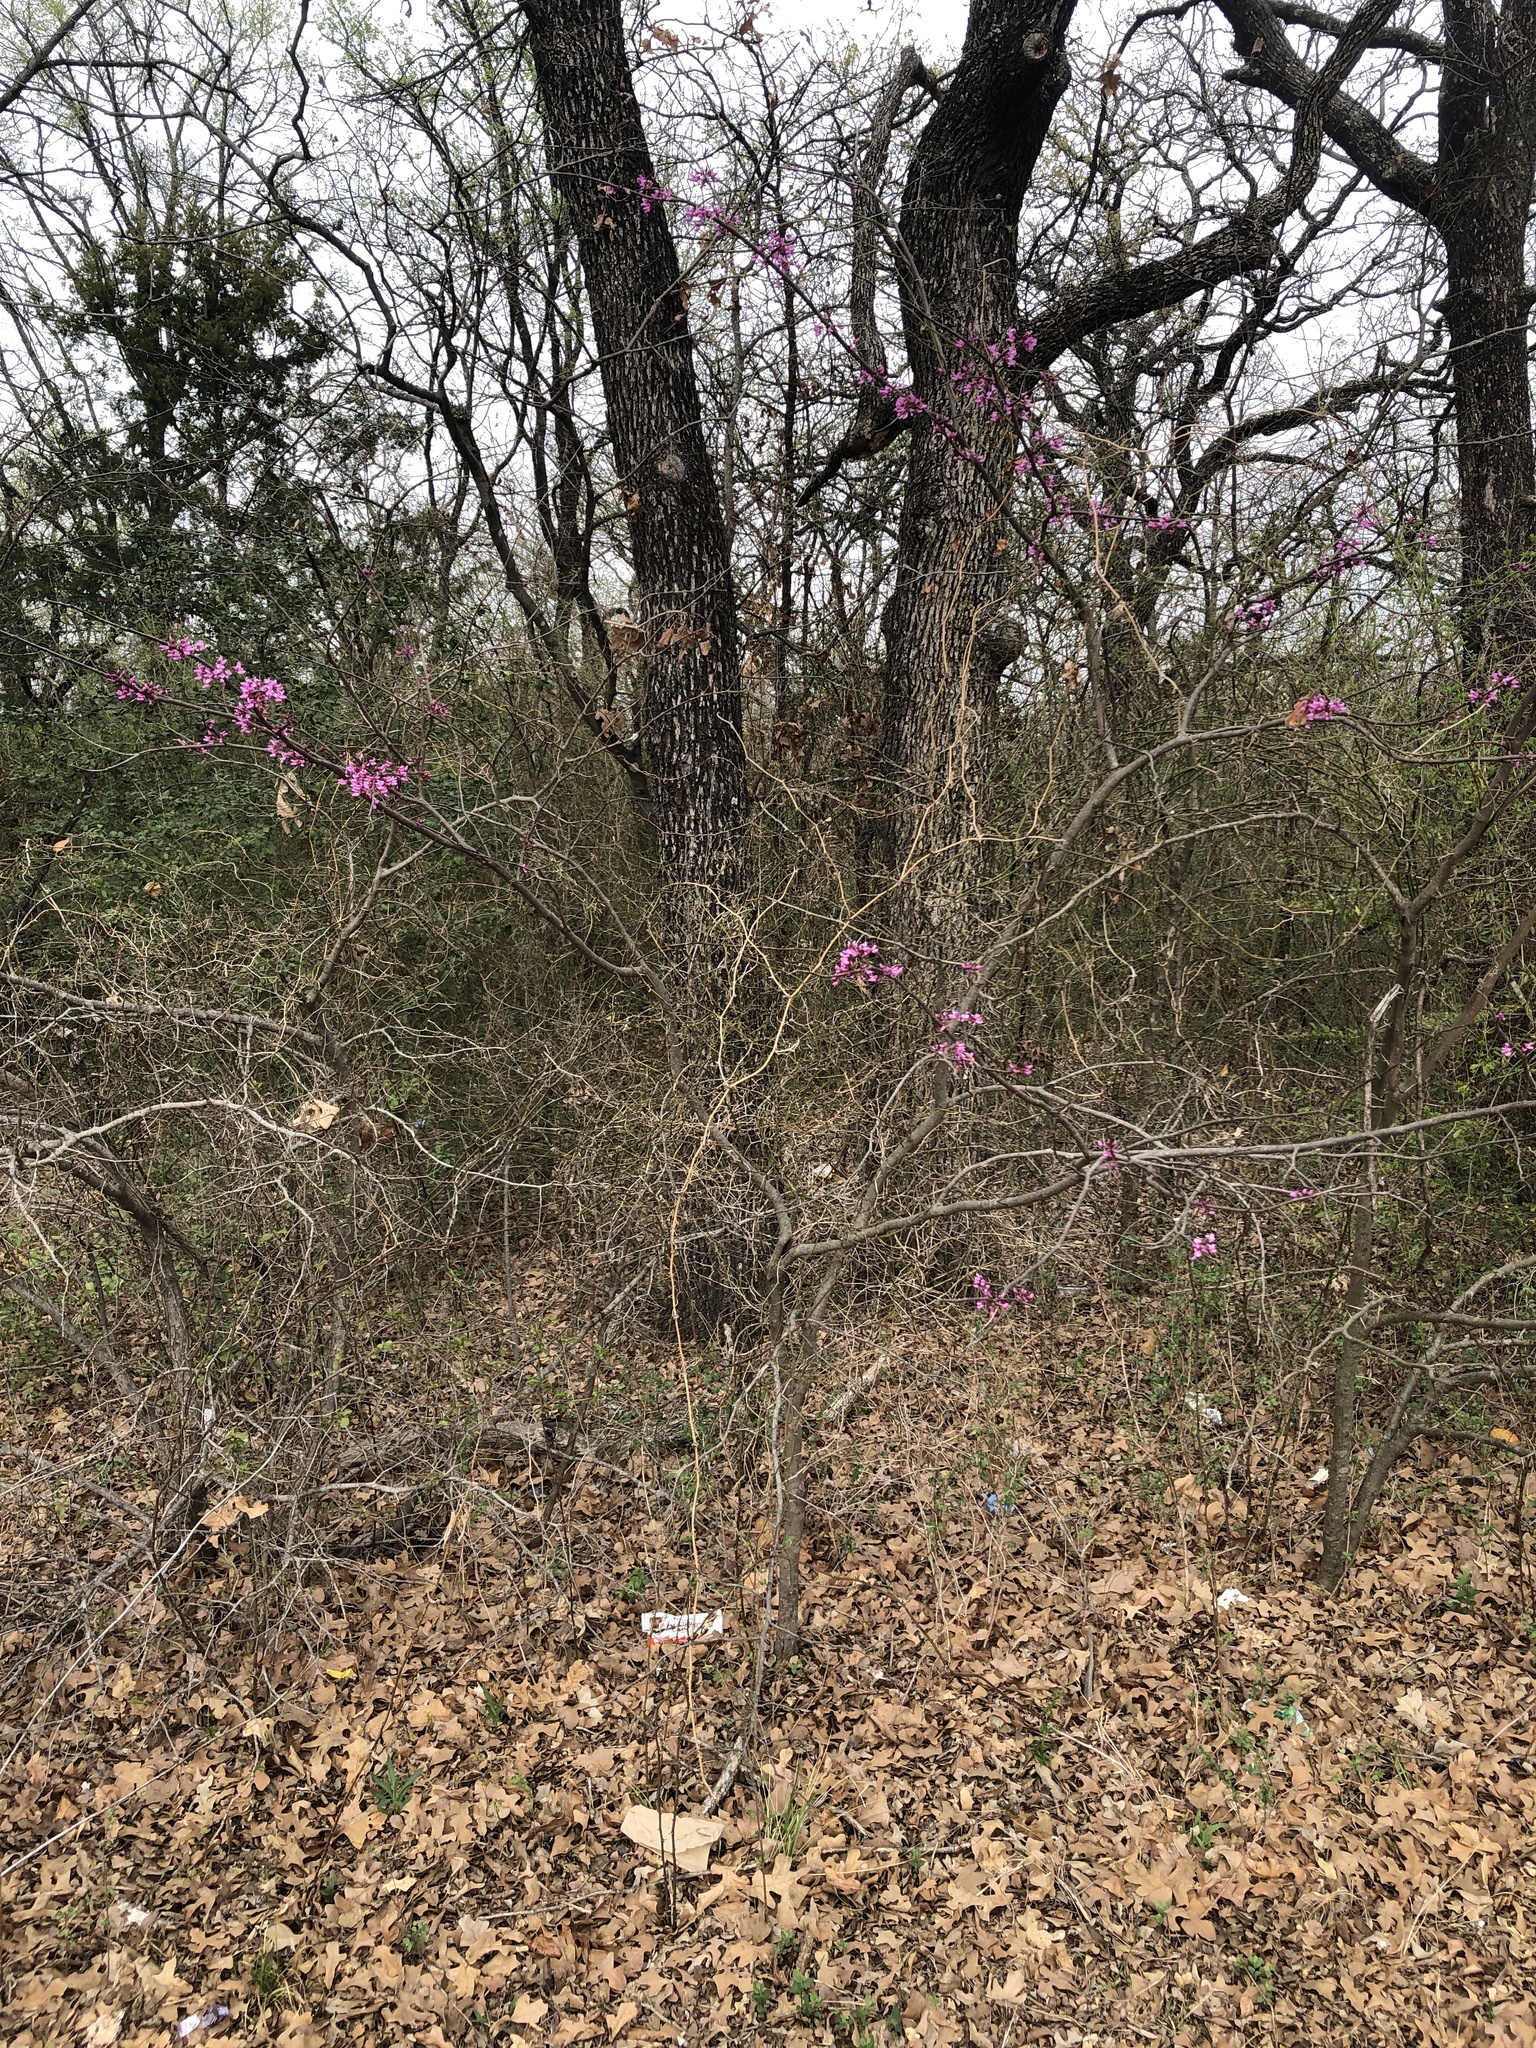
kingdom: Plantae
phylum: Tracheophyta
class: Magnoliopsida
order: Fabales
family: Fabaceae
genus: Cercis
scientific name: Cercis canadensis
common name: Eastern redbud
